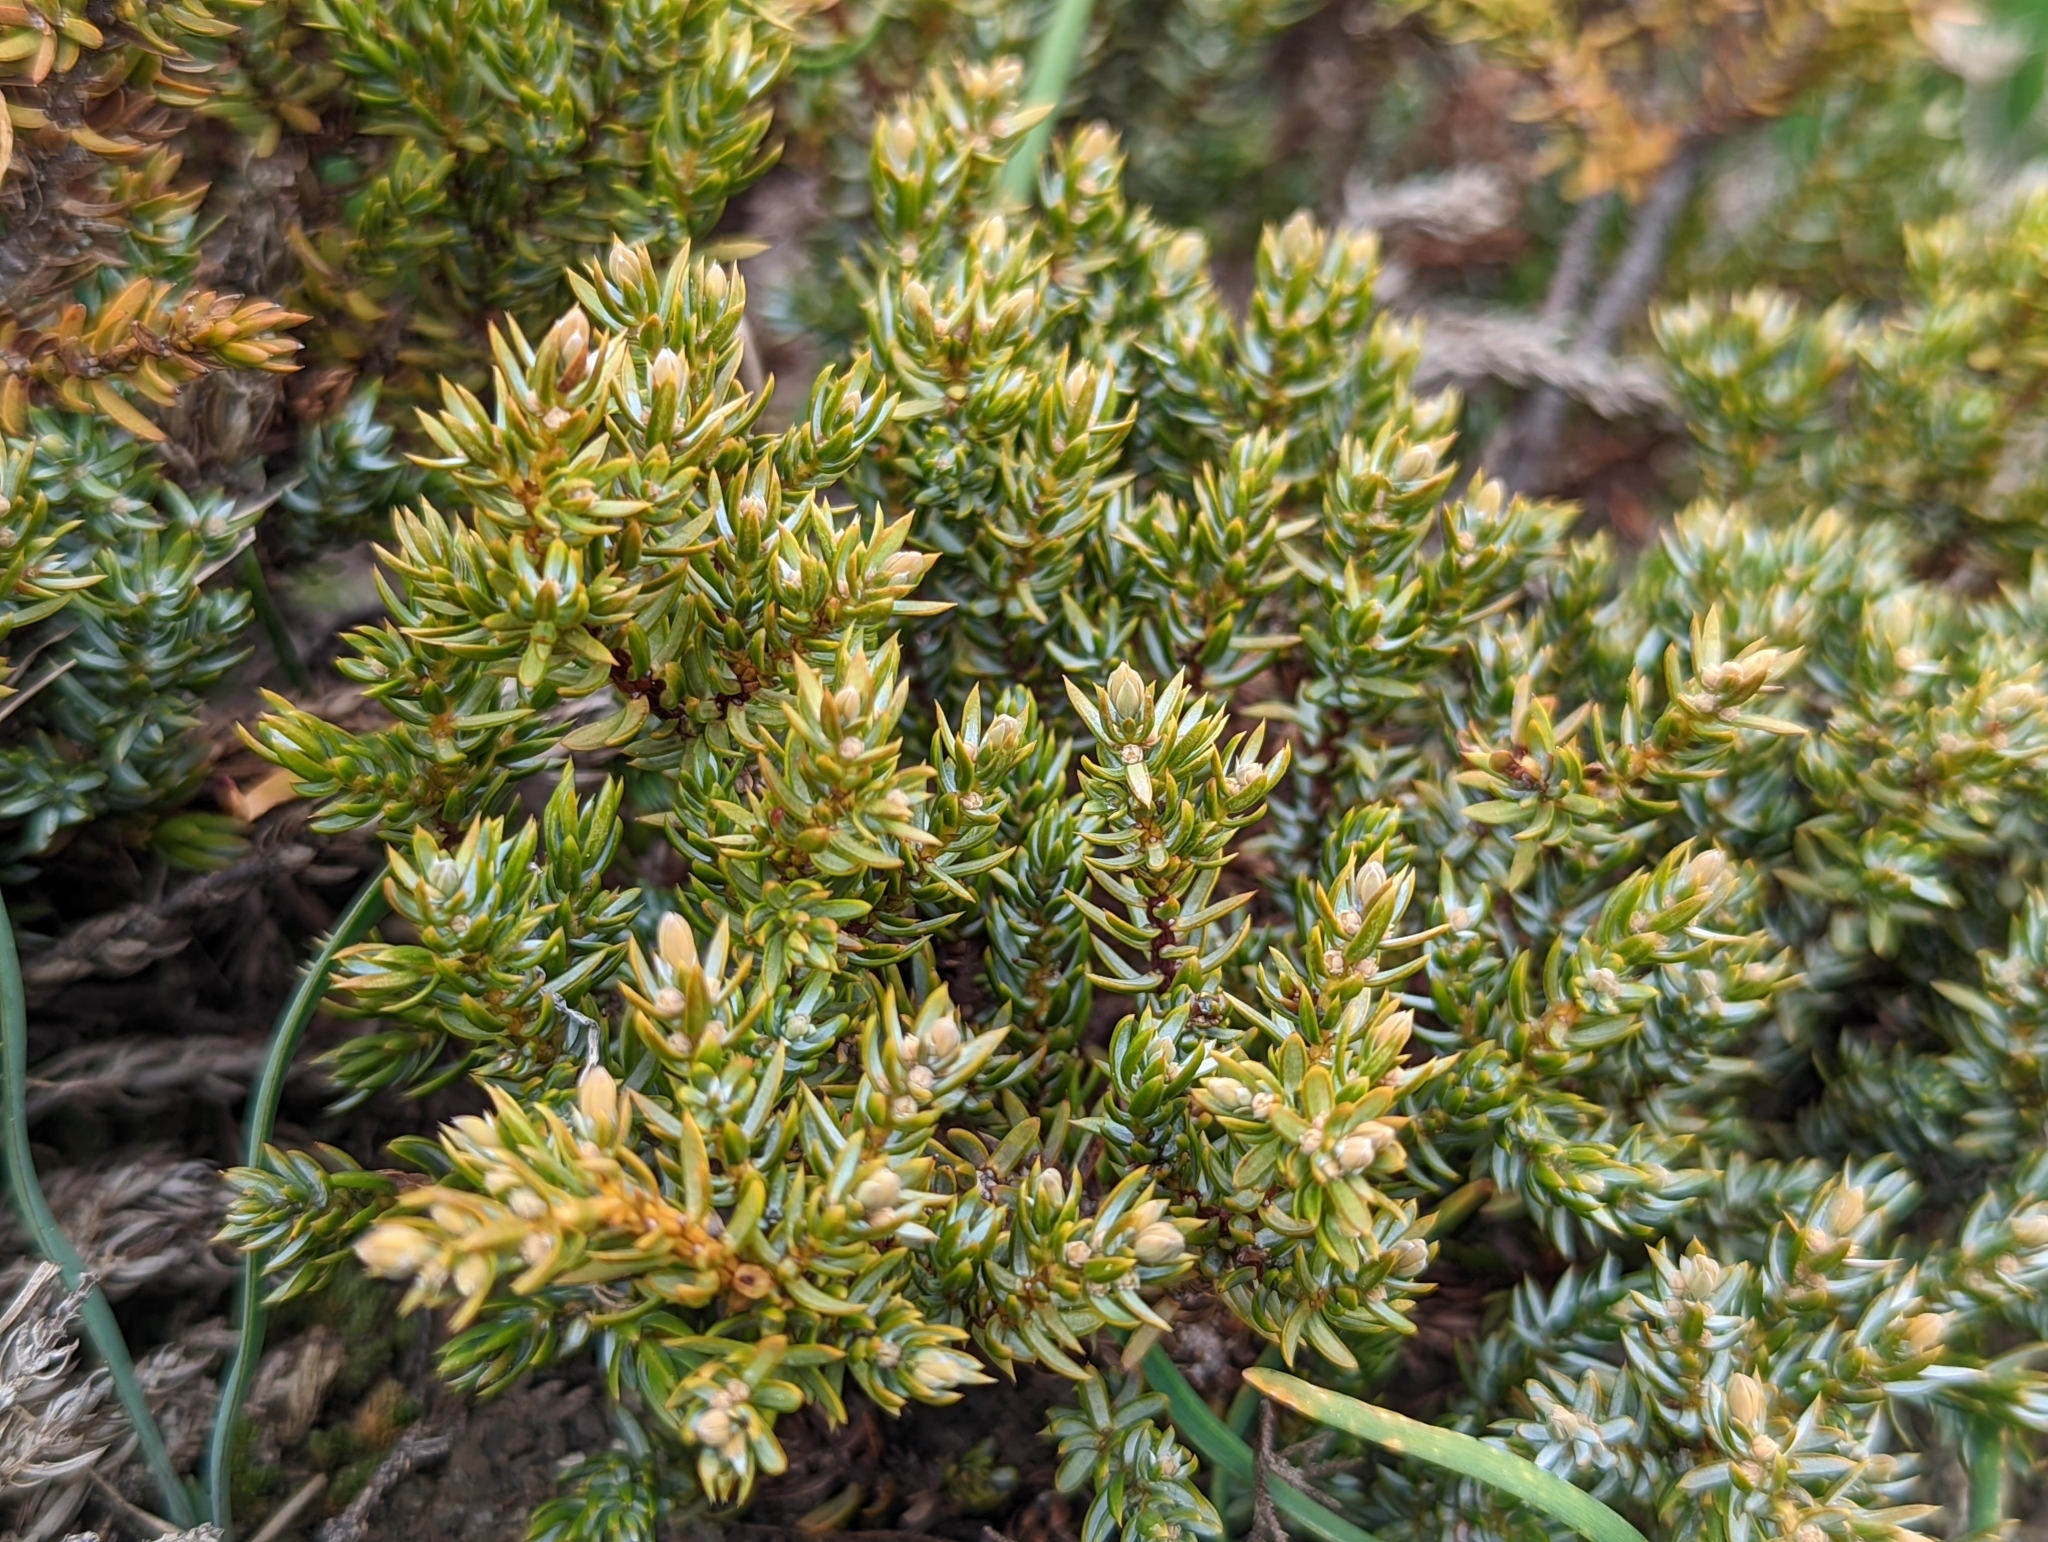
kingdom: Plantae
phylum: Tracheophyta
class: Pinopsida
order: Pinales
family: Cupressaceae
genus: Juniperus
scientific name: Juniperus communis
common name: Common juniper
